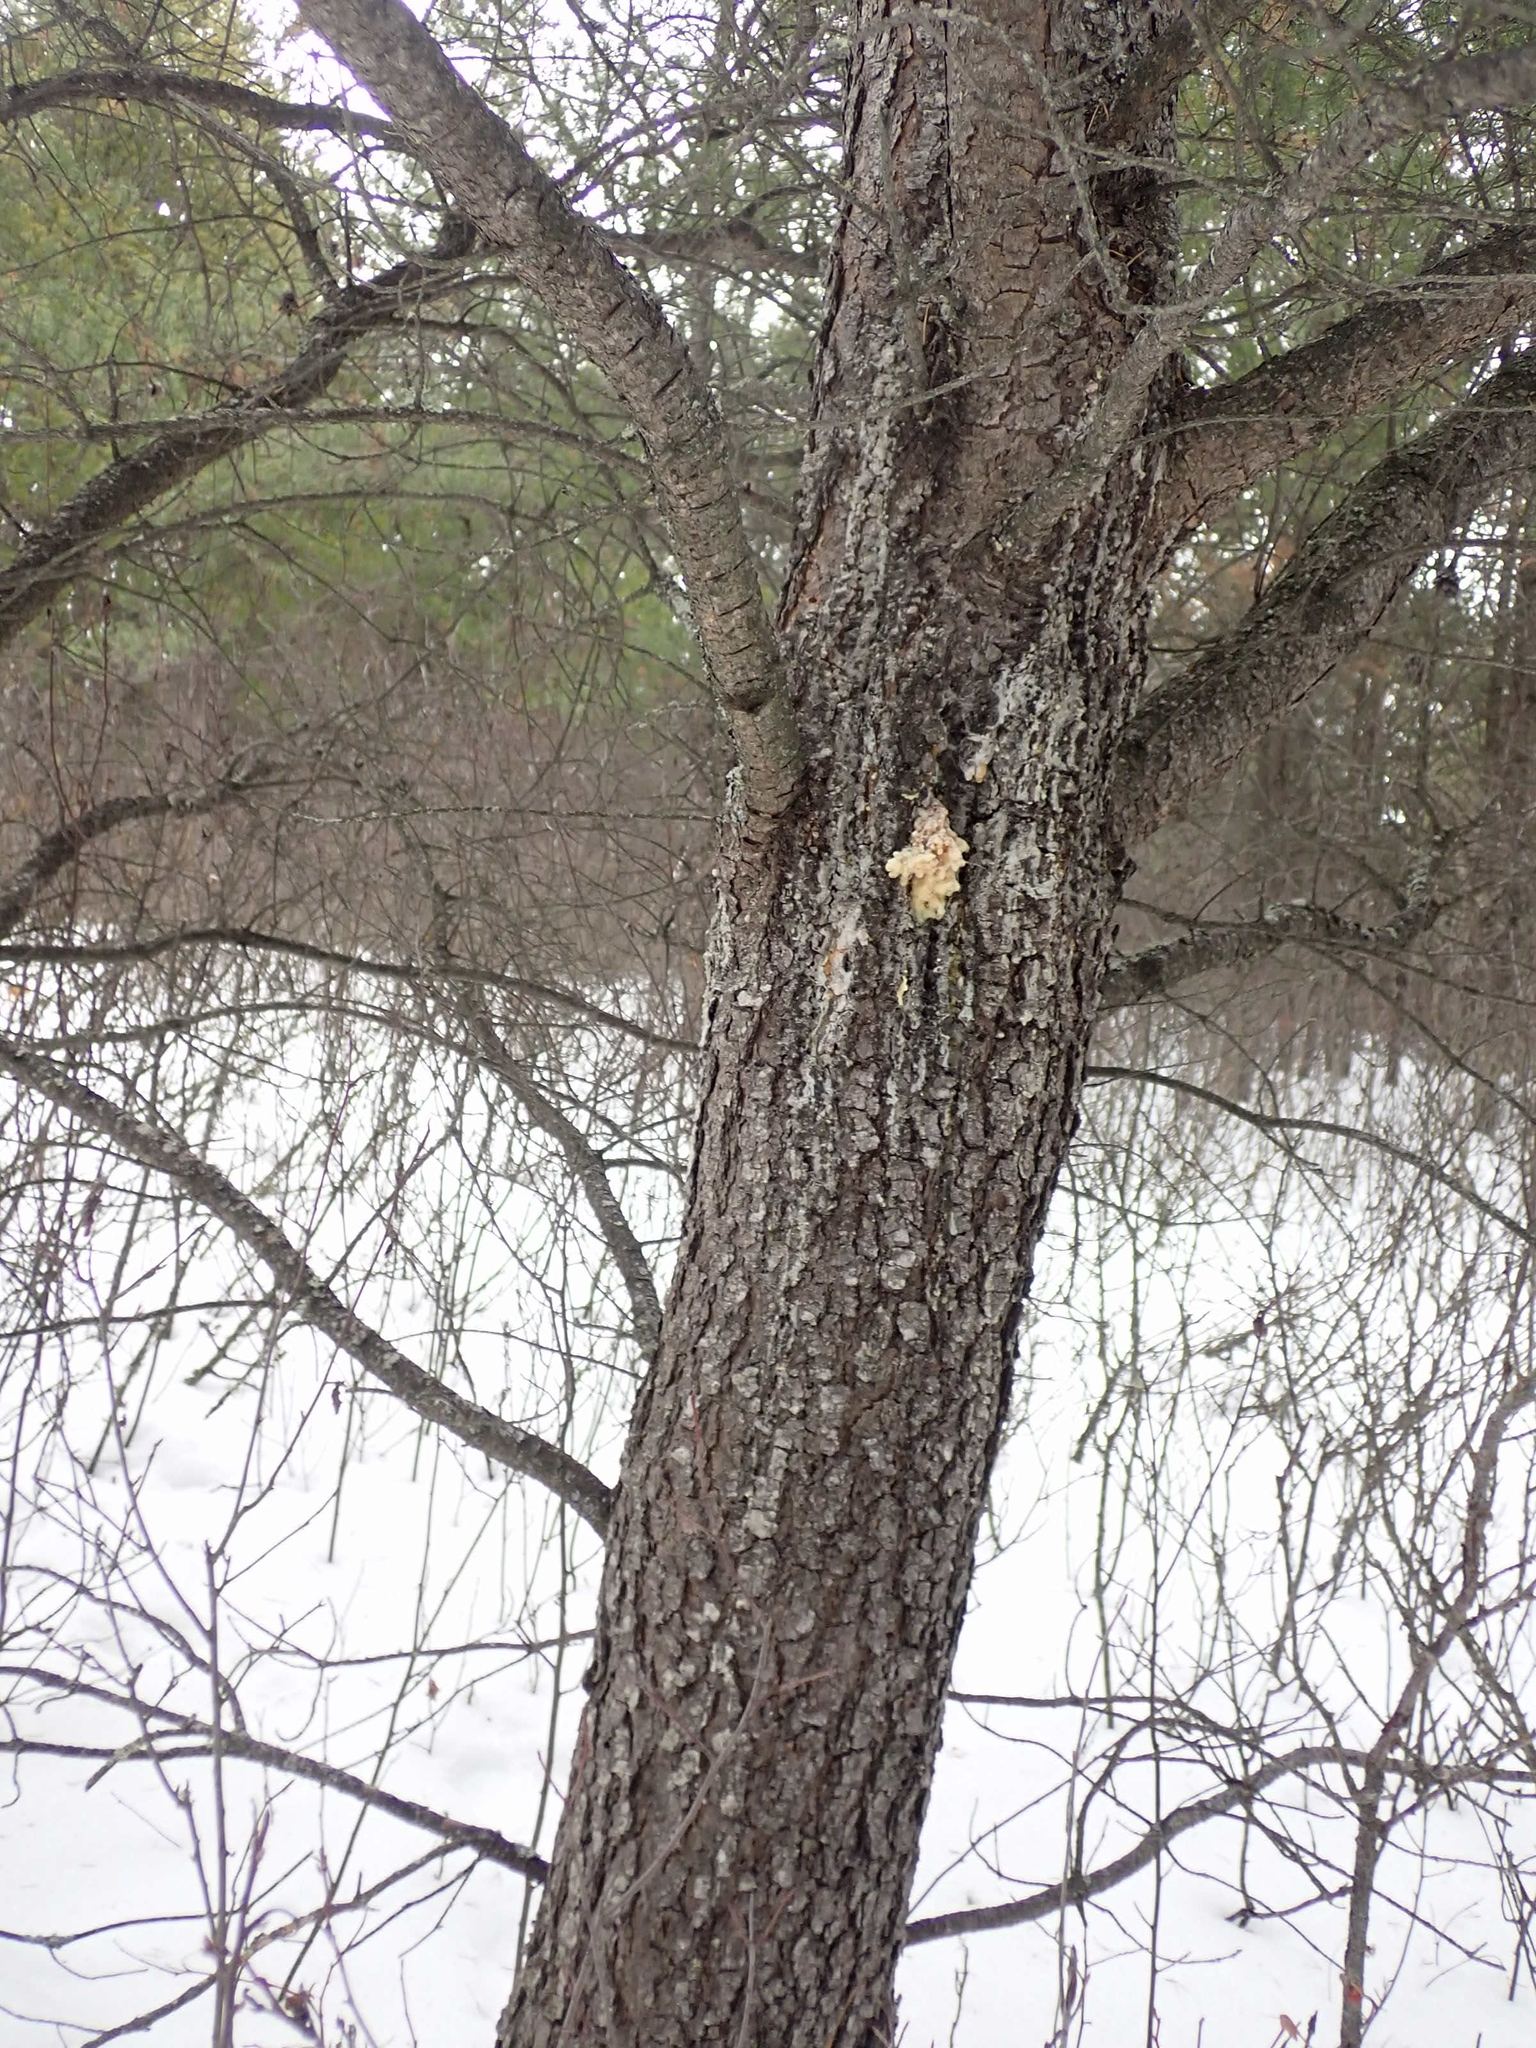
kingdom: Plantae
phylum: Tracheophyta
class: Pinopsida
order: Pinales
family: Pinaceae
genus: Pinus
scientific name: Pinus banksiana
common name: Jack pine
